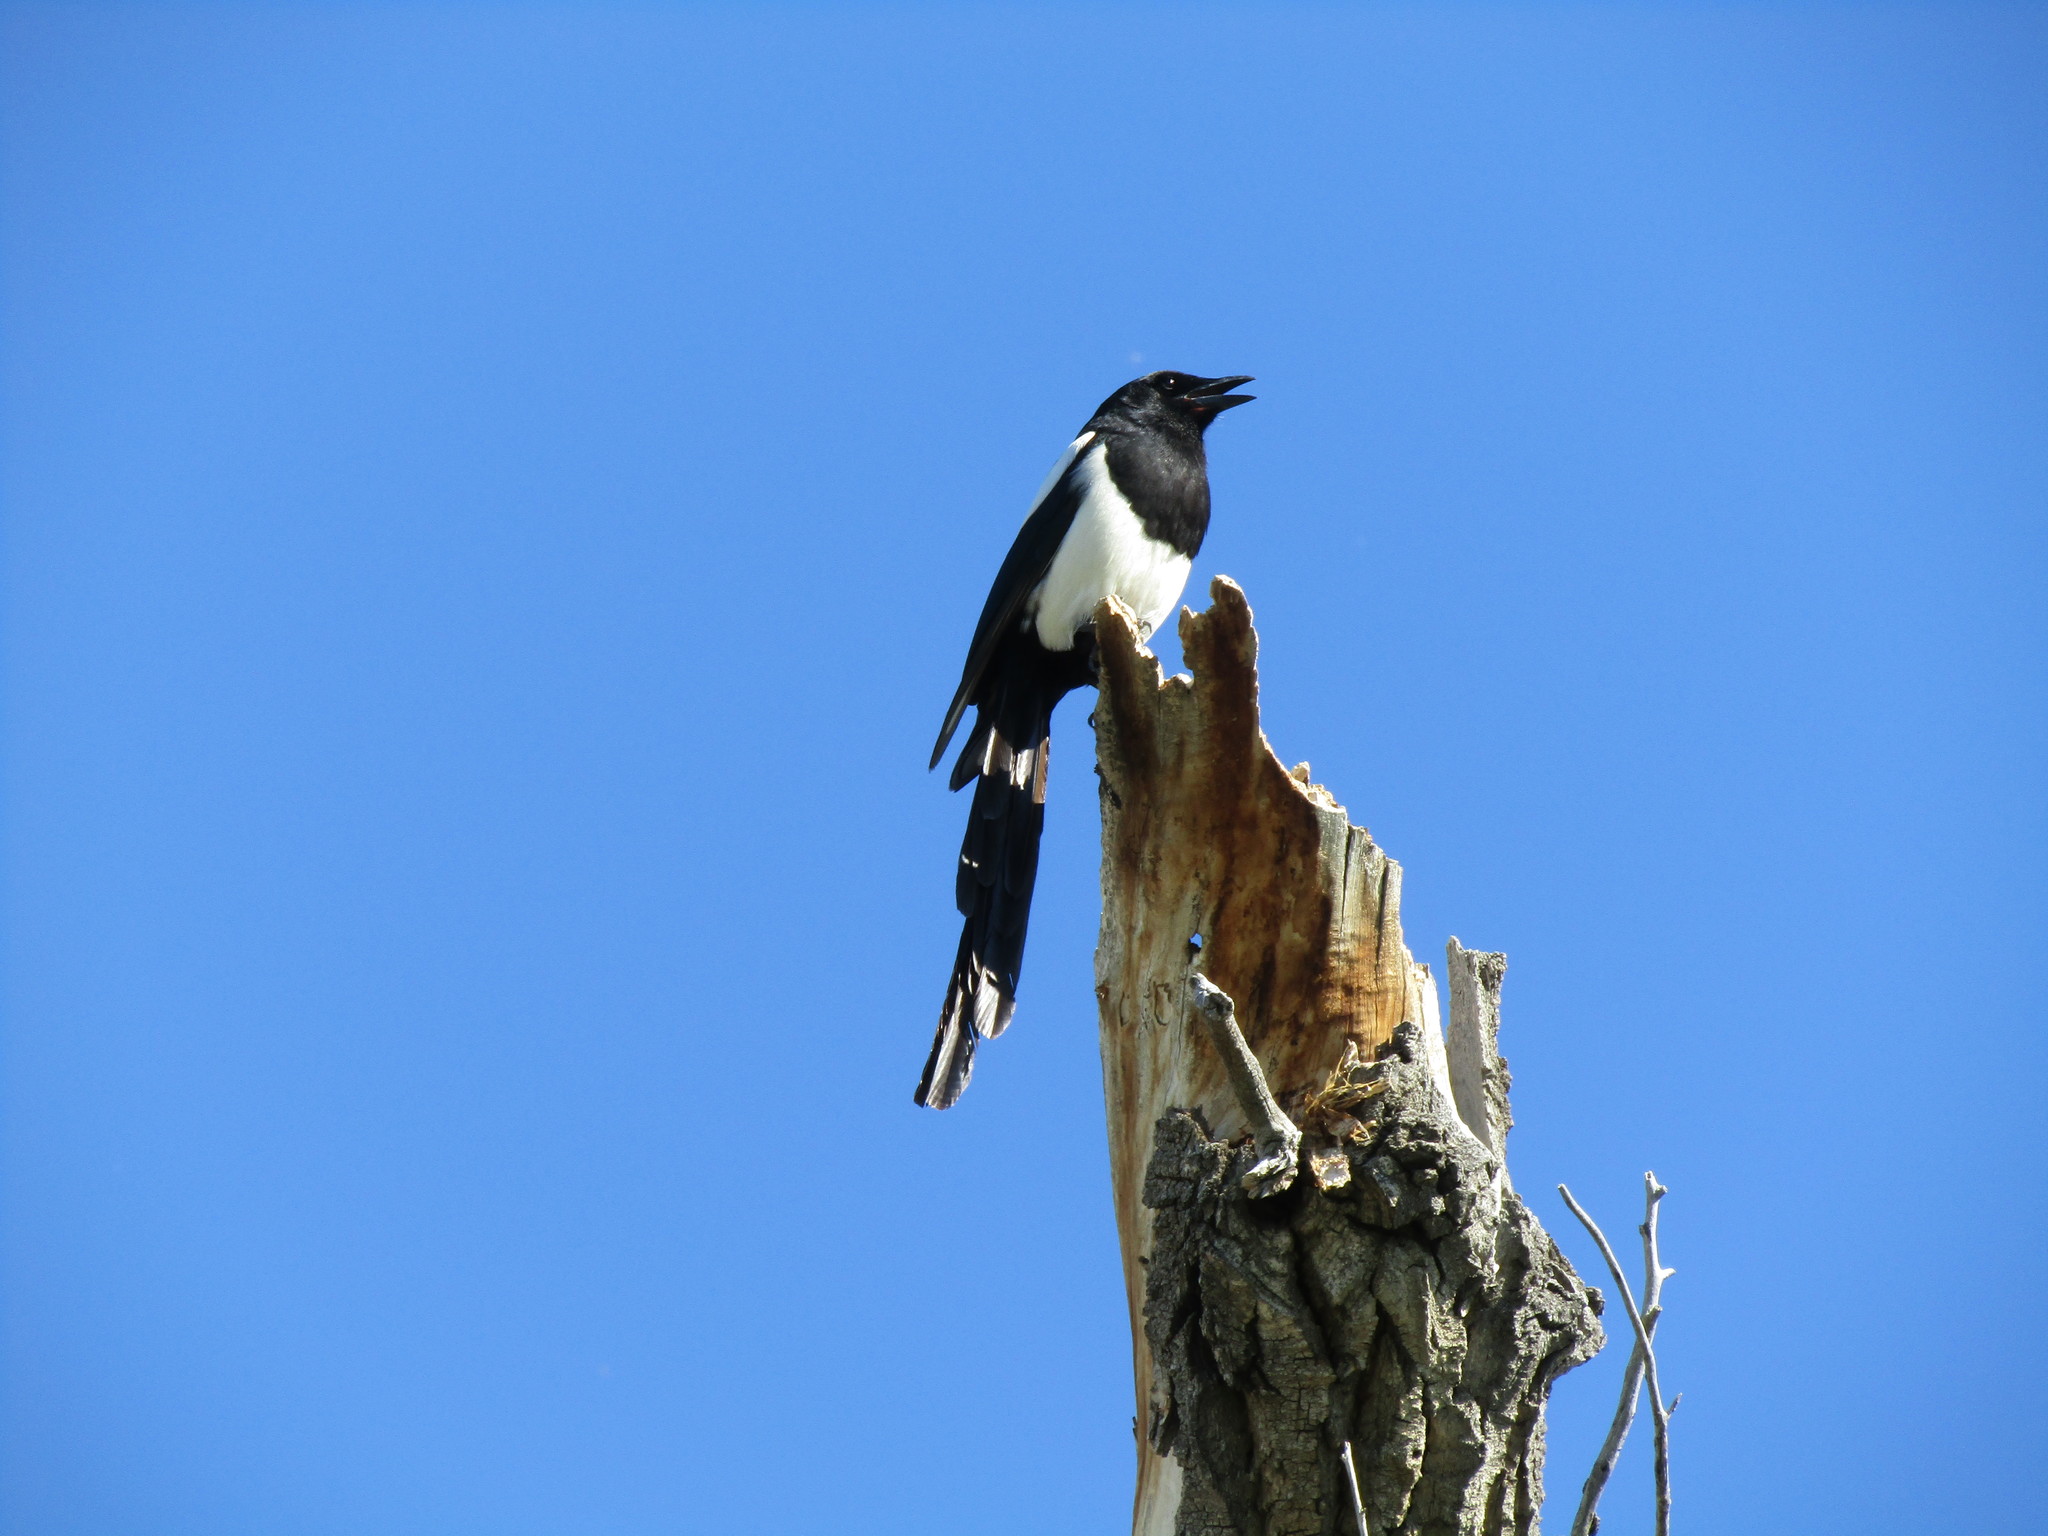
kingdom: Animalia
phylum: Chordata
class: Aves
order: Passeriformes
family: Corvidae
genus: Pica
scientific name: Pica hudsonia
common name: Black-billed magpie
